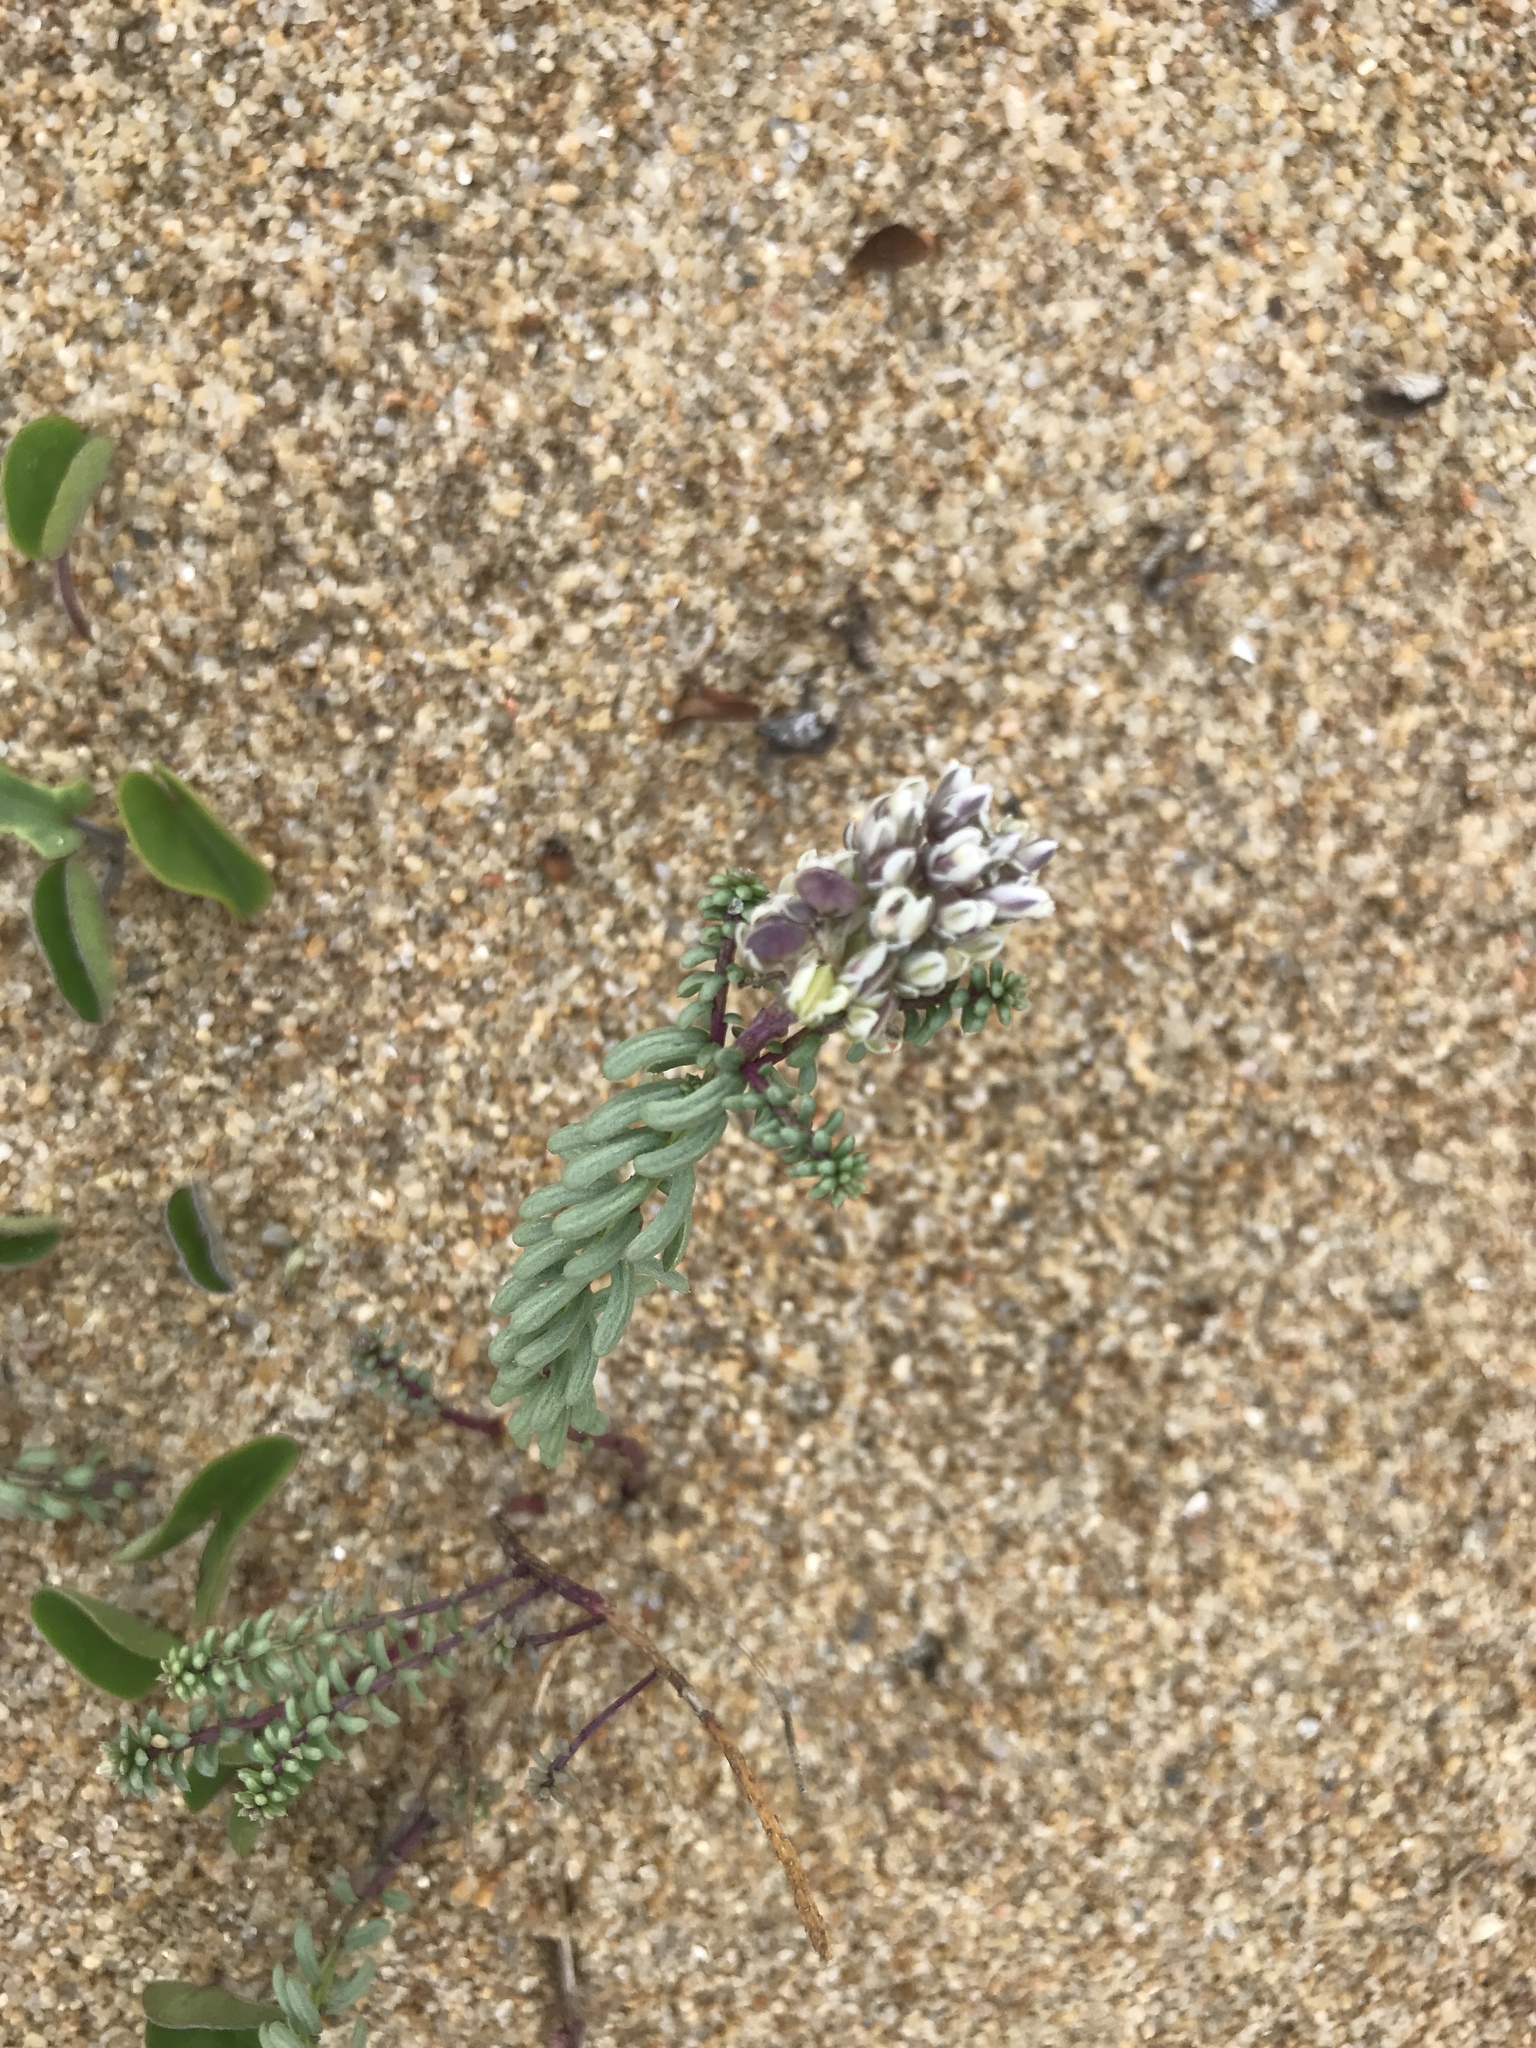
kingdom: Plantae
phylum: Tracheophyta
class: Magnoliopsida
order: Fabales
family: Polygalaceae
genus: Polygala
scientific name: Polygala cyparissias
